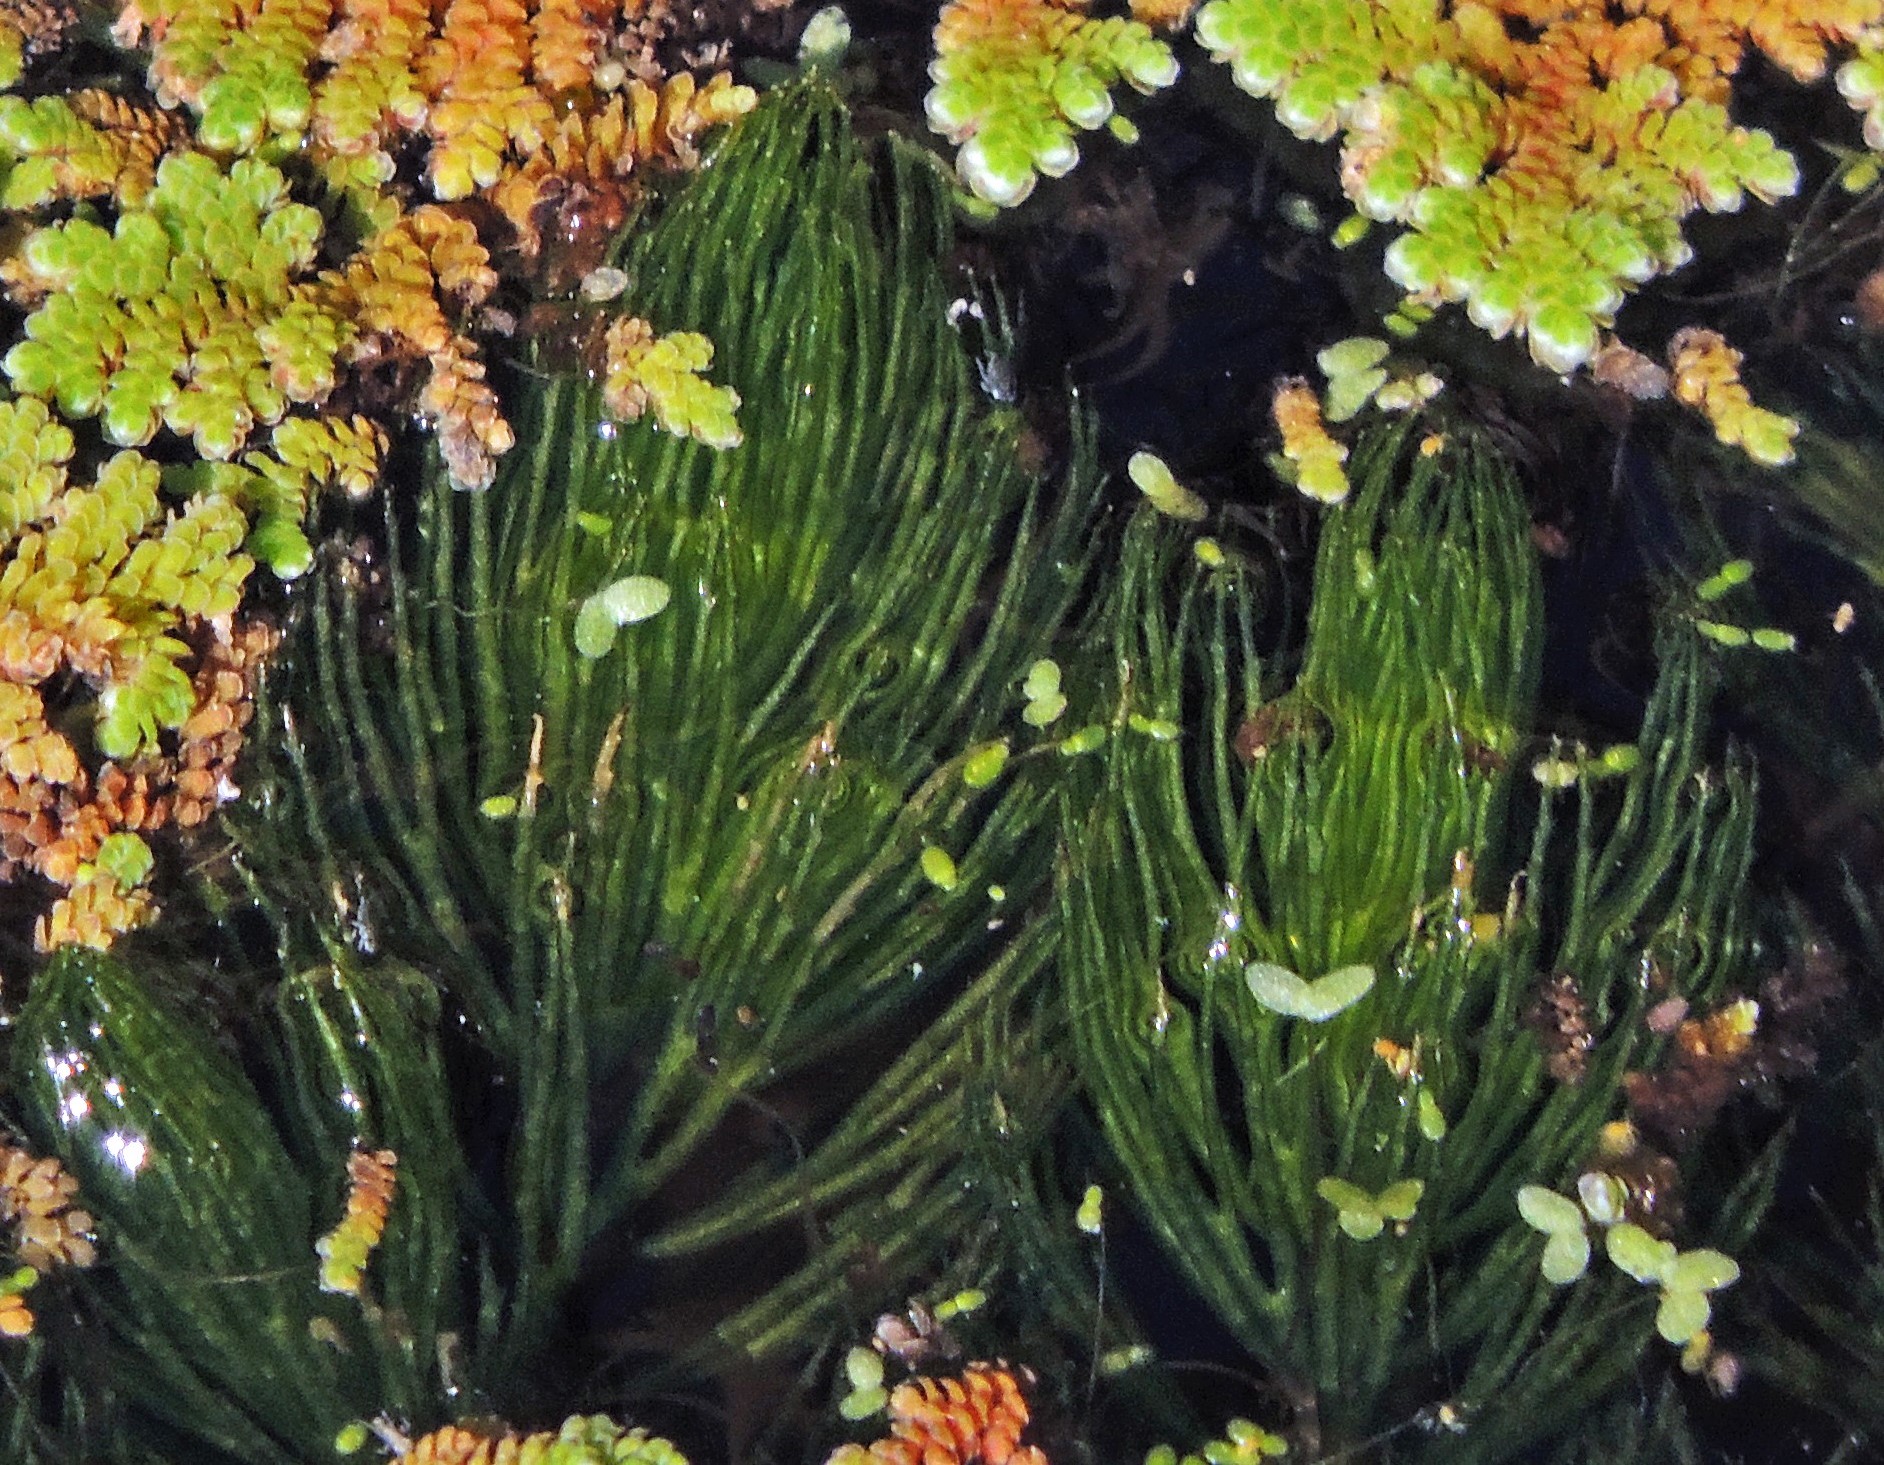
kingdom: Plantae
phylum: Tracheophyta
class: Magnoliopsida
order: Ceratophyllales
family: Ceratophyllaceae
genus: Ceratophyllum
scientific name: Ceratophyllum demersum
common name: Rigid hornwort
